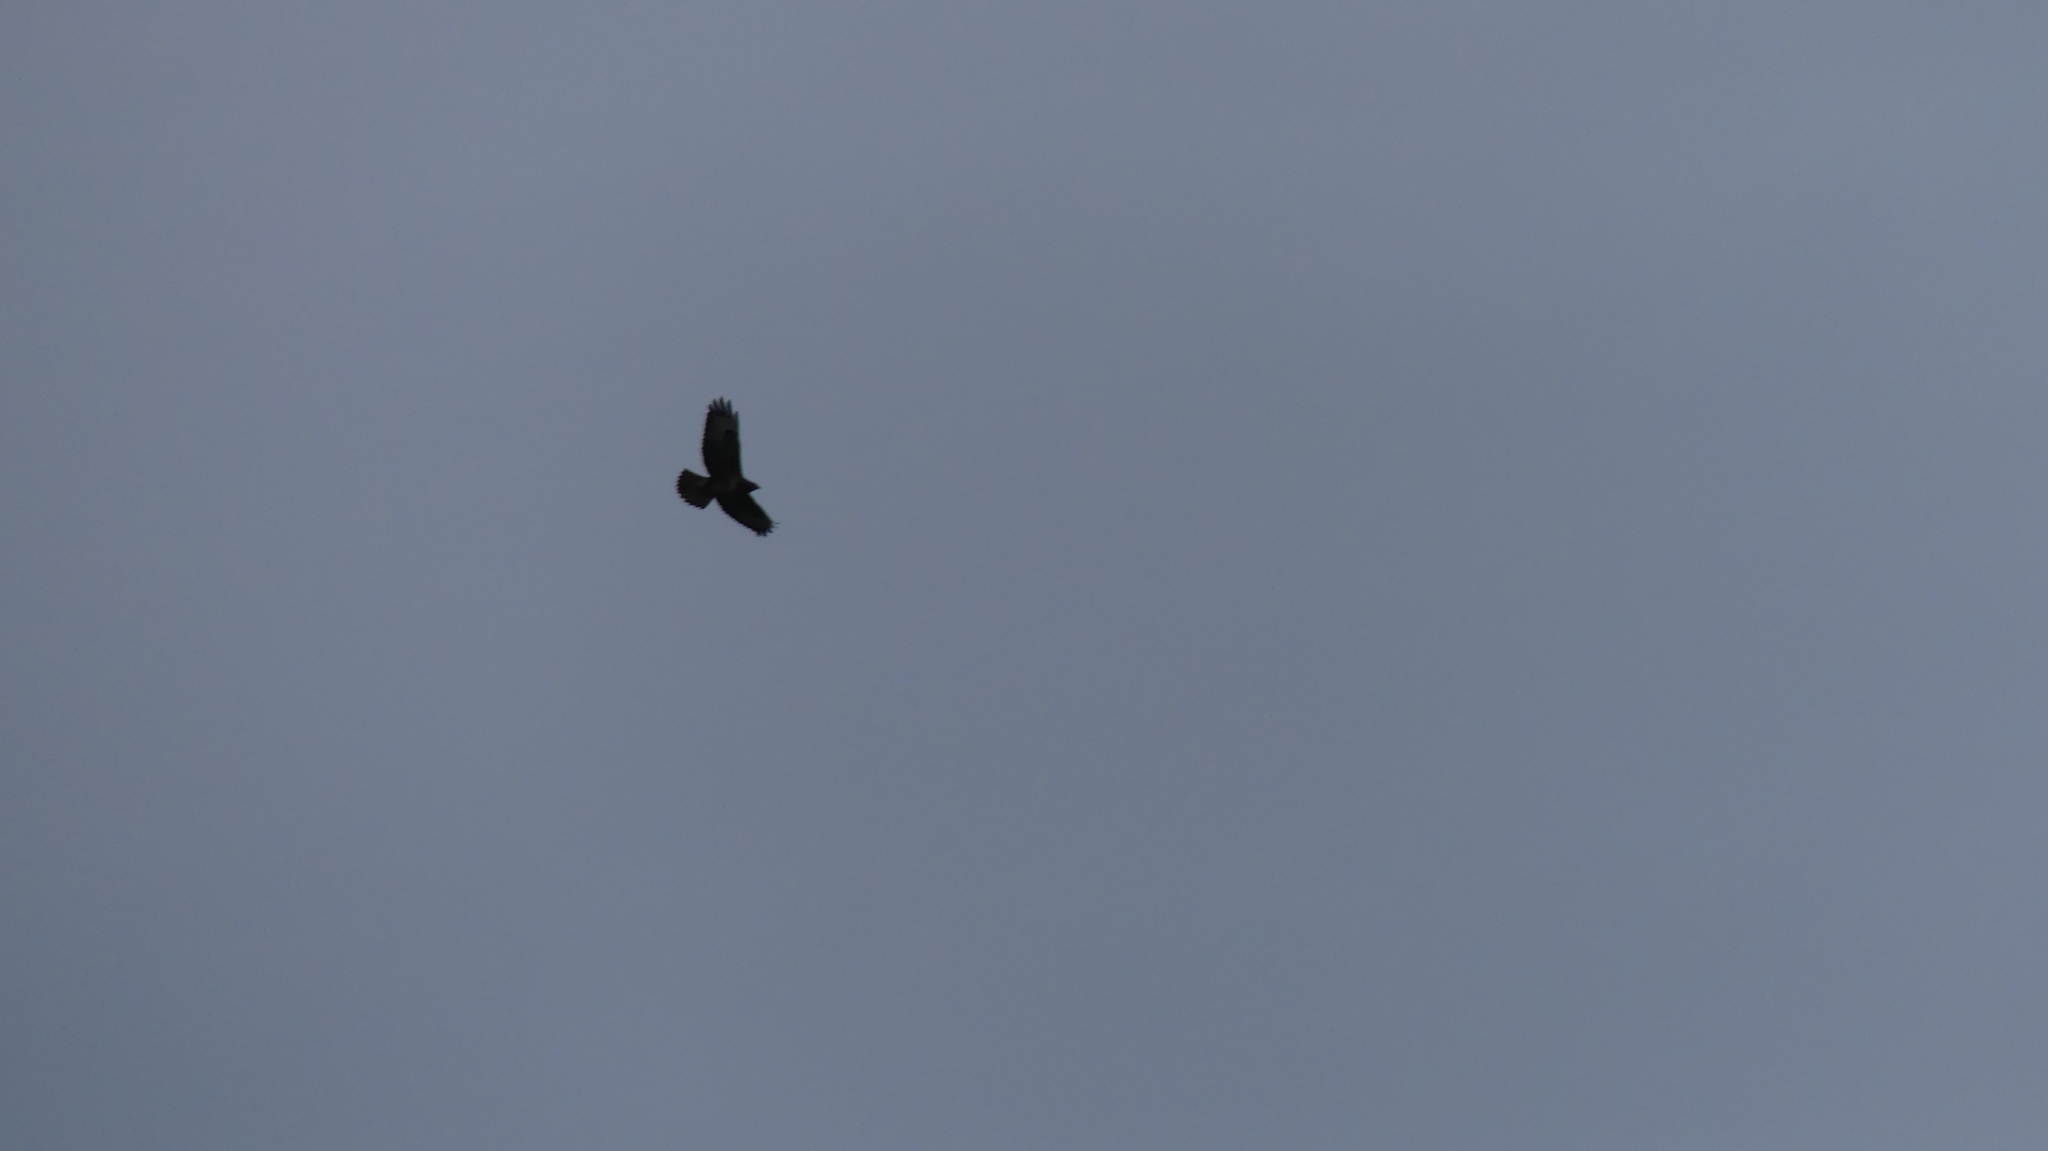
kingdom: Animalia
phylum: Chordata
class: Aves
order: Accipitriformes
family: Accipitridae
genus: Buteo
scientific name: Buteo buteo
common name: Common buzzard
